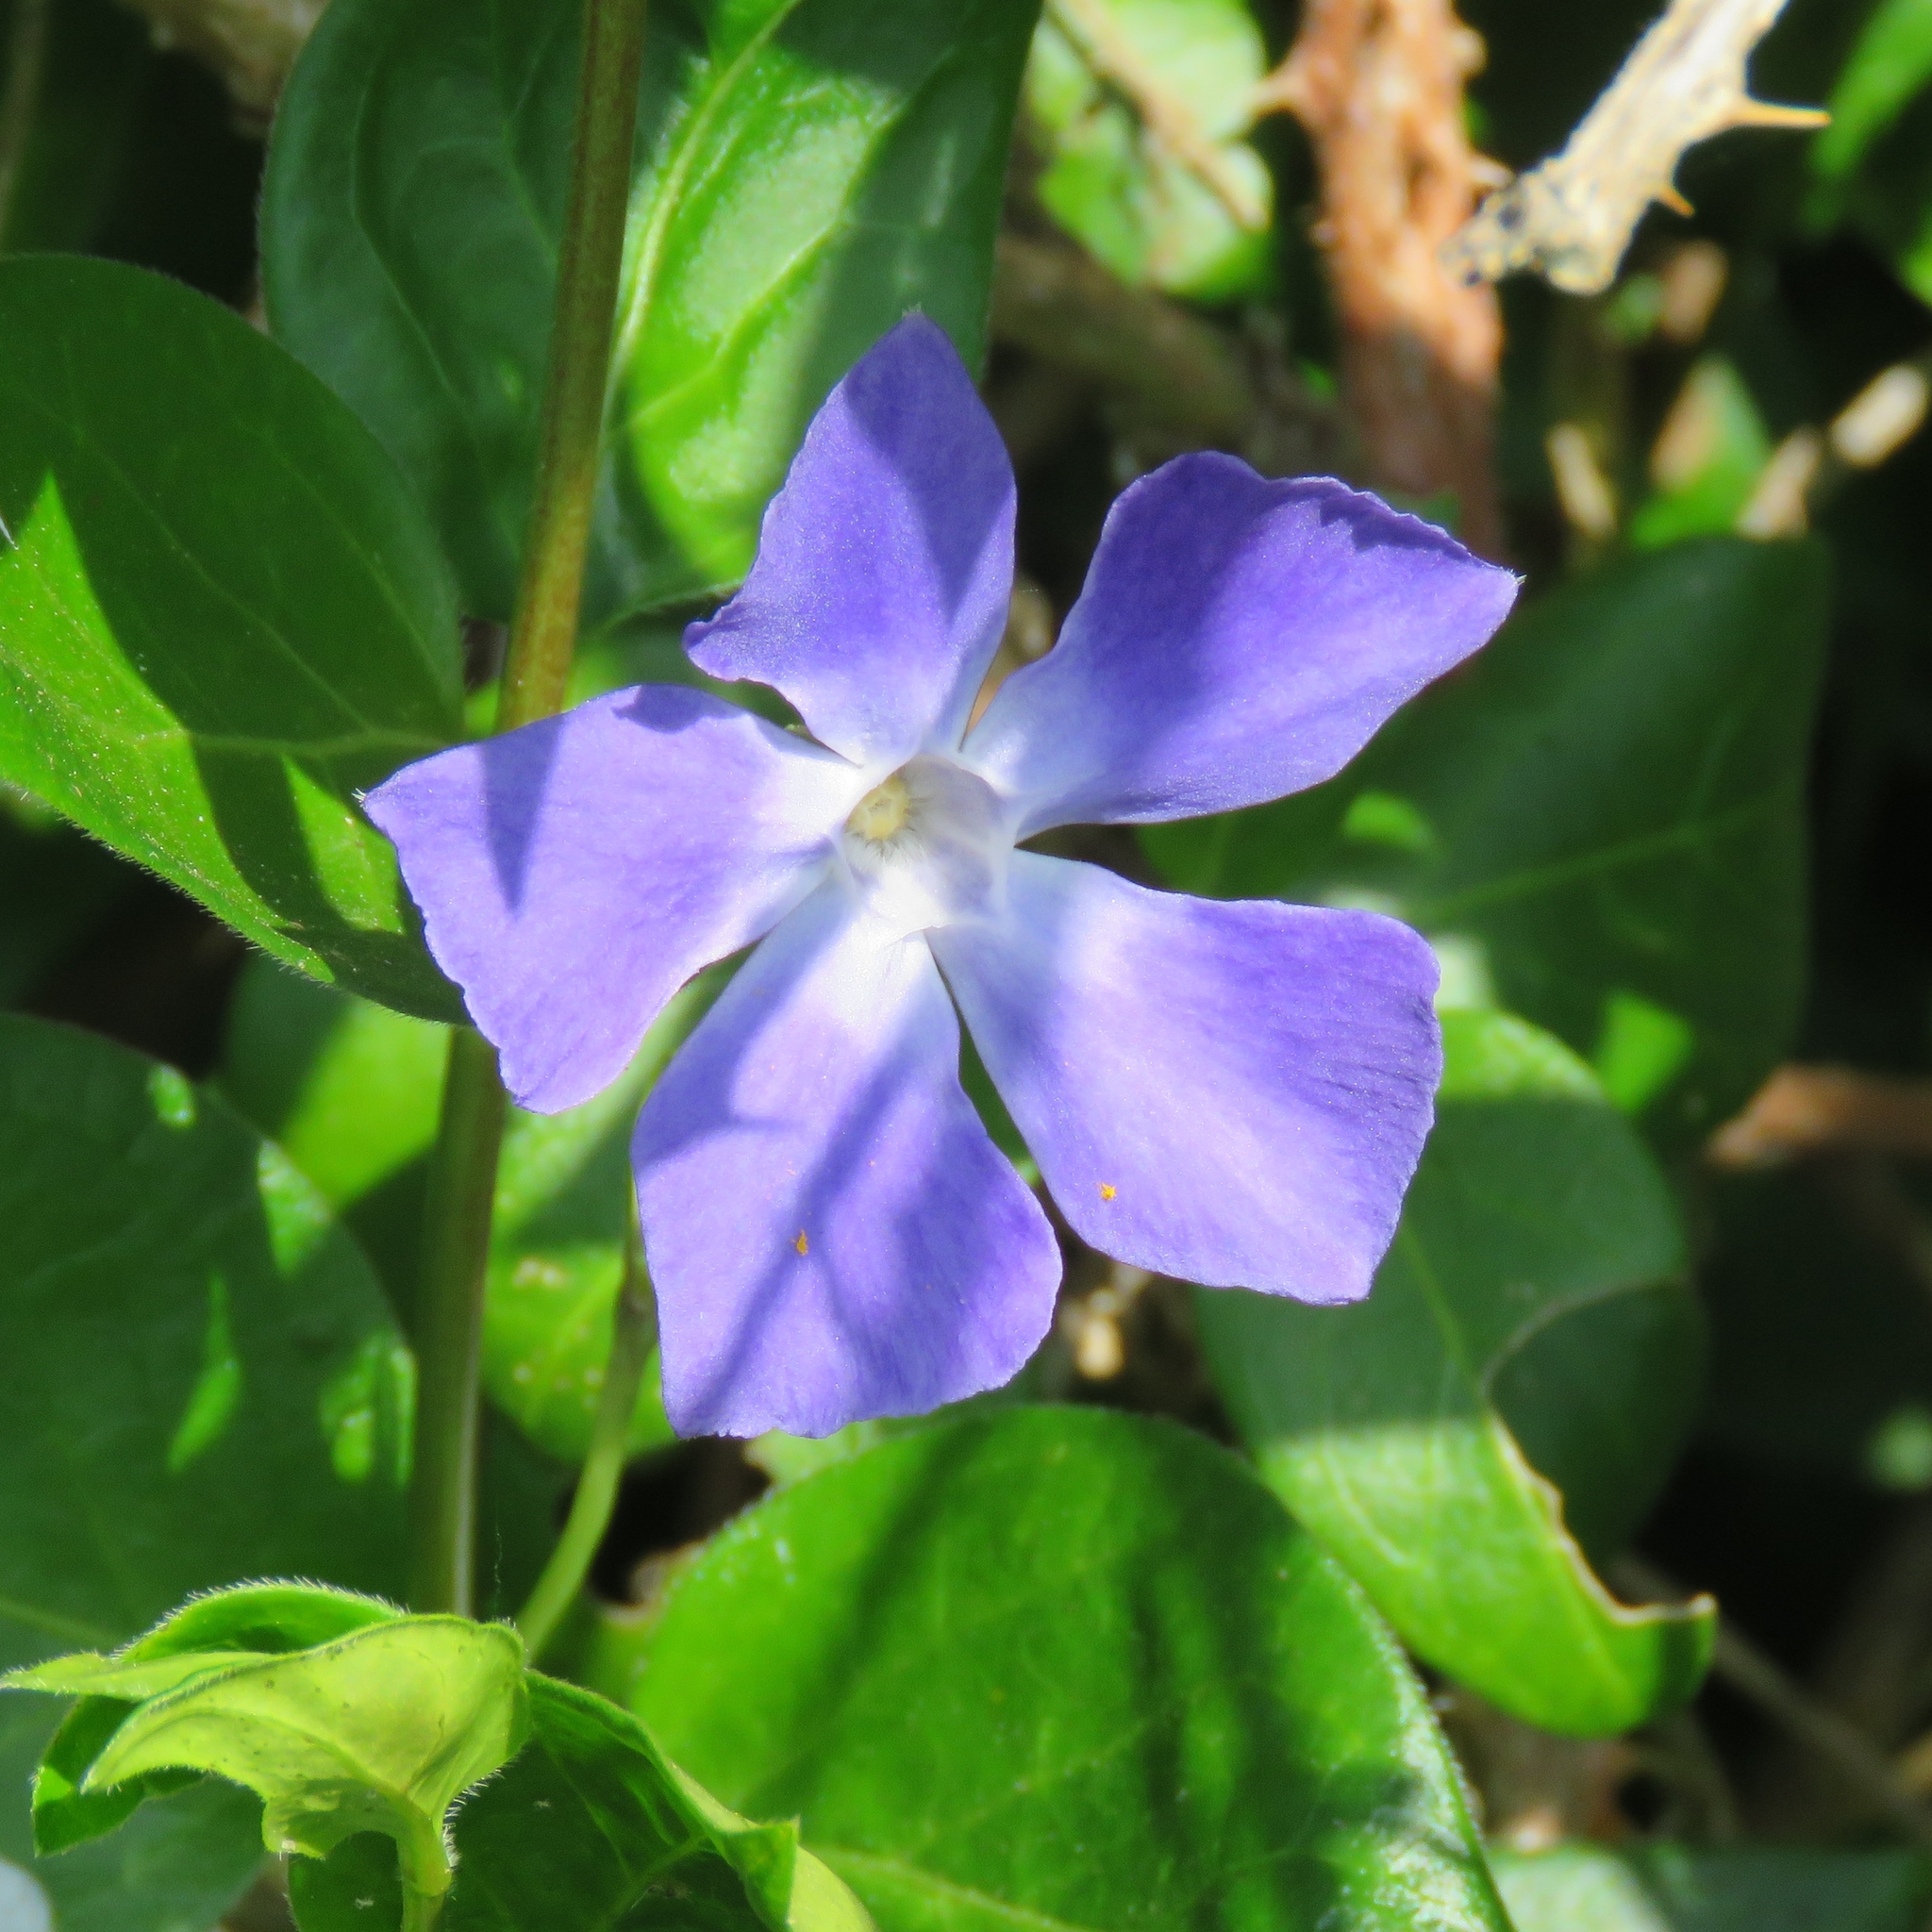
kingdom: Plantae
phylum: Tracheophyta
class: Magnoliopsida
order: Gentianales
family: Apocynaceae
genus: Vinca
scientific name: Vinca major
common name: Greater periwinkle
